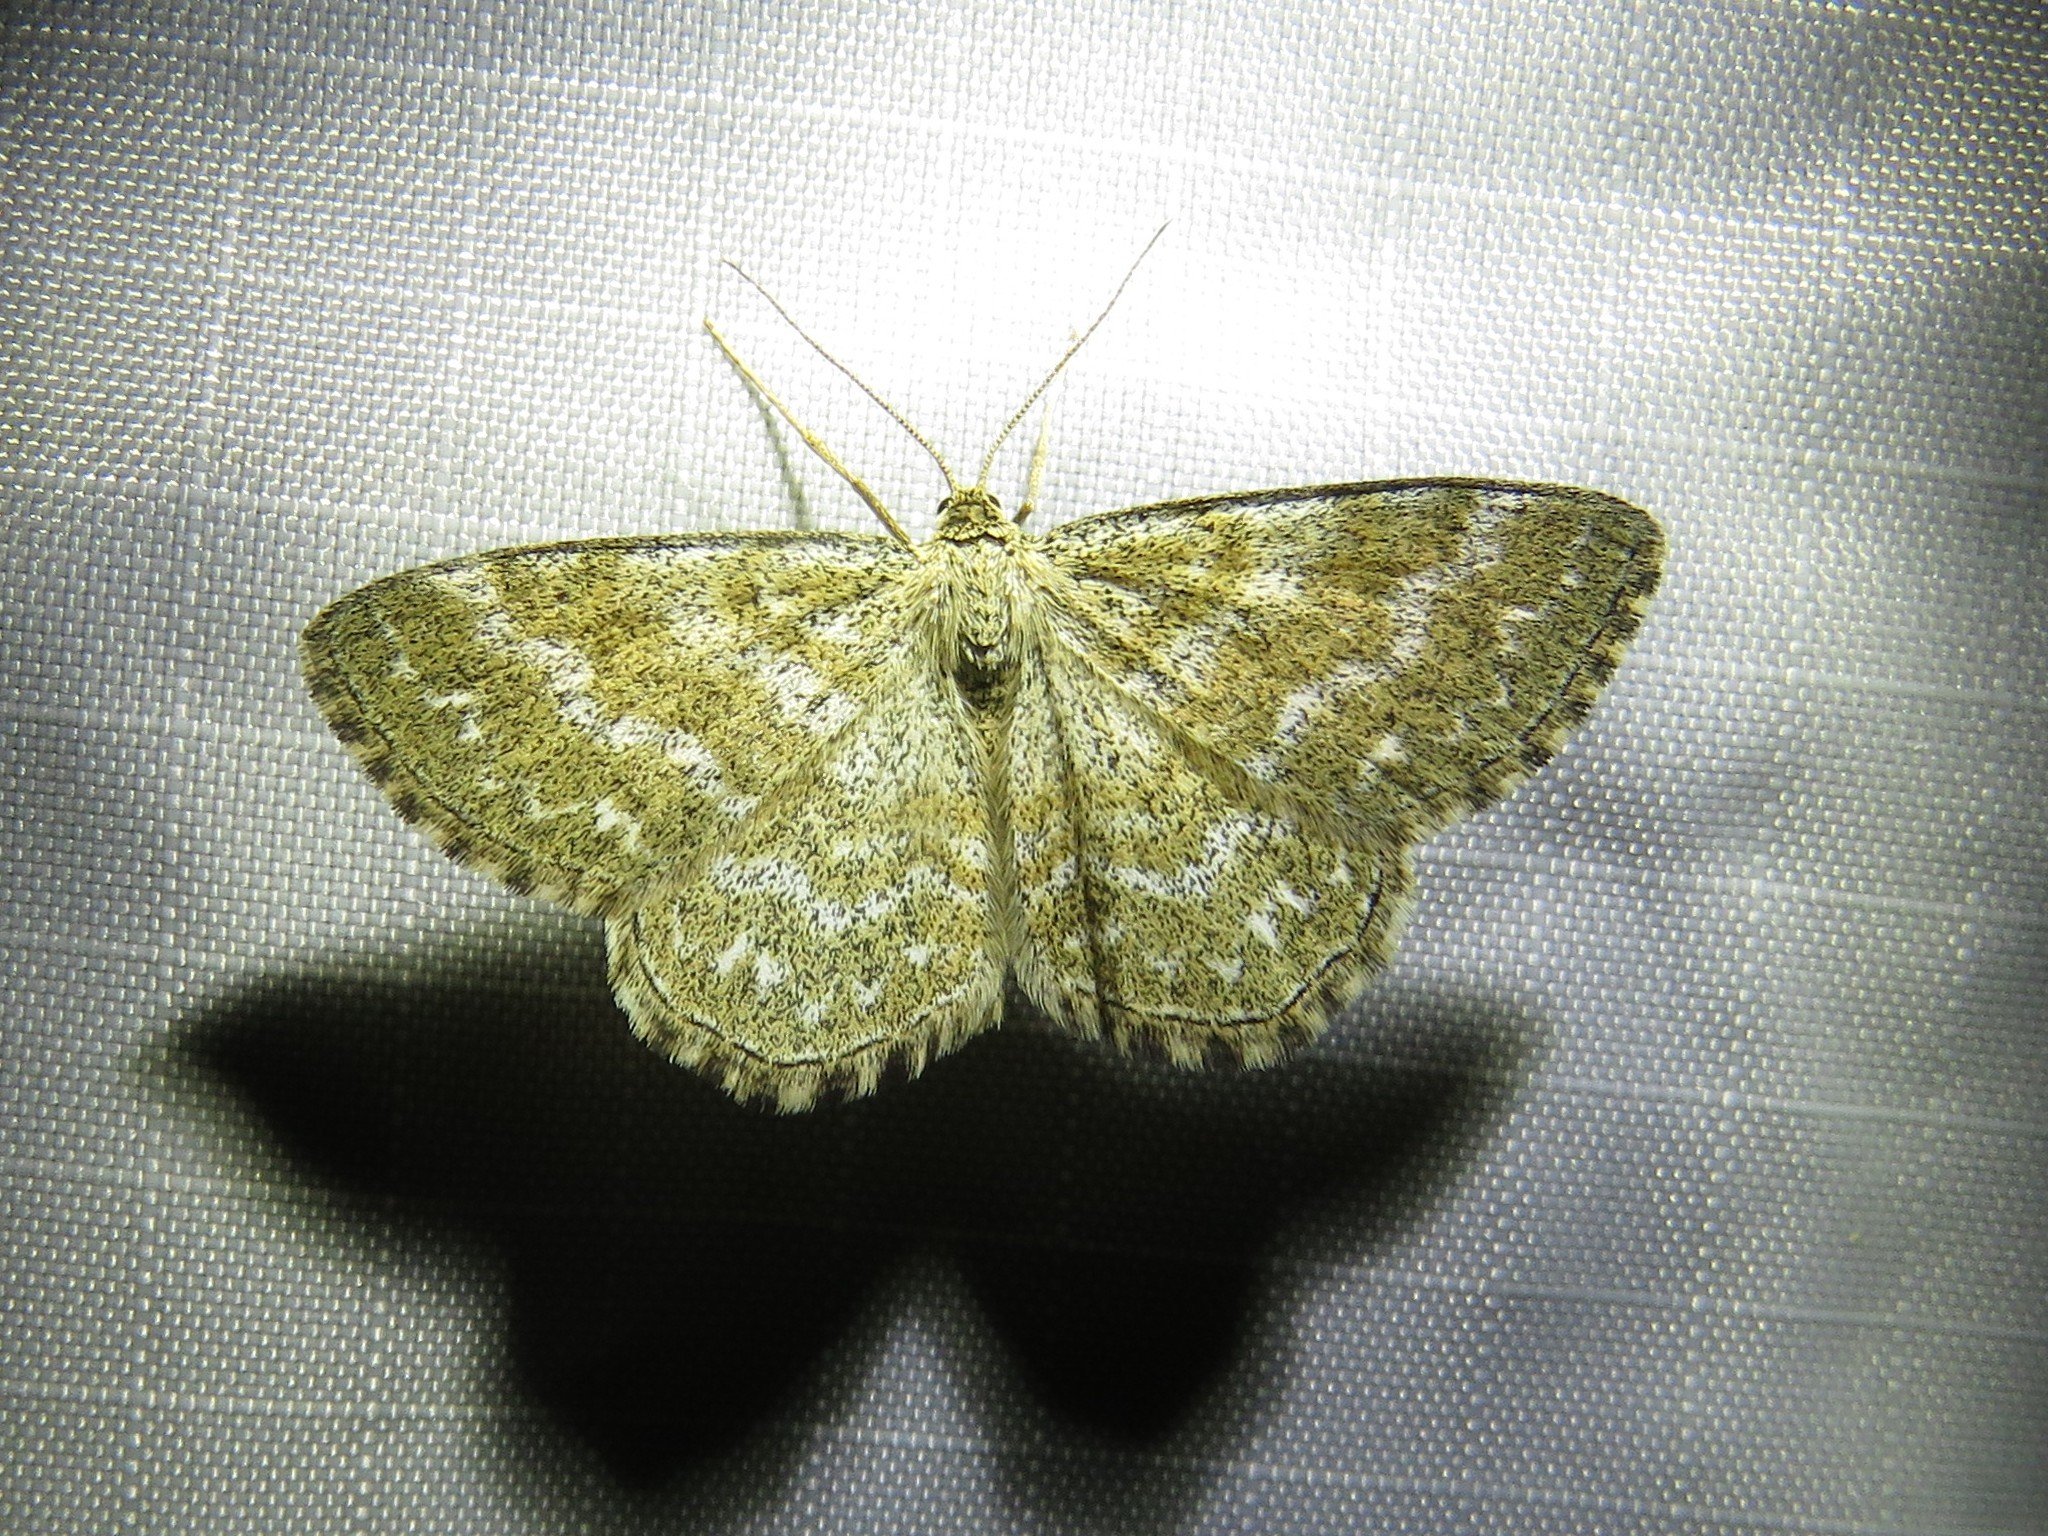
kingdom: Animalia
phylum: Arthropoda
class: Insecta
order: Lepidoptera
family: Geometridae
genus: Scopula
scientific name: Scopula immorata
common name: Lewes wave
